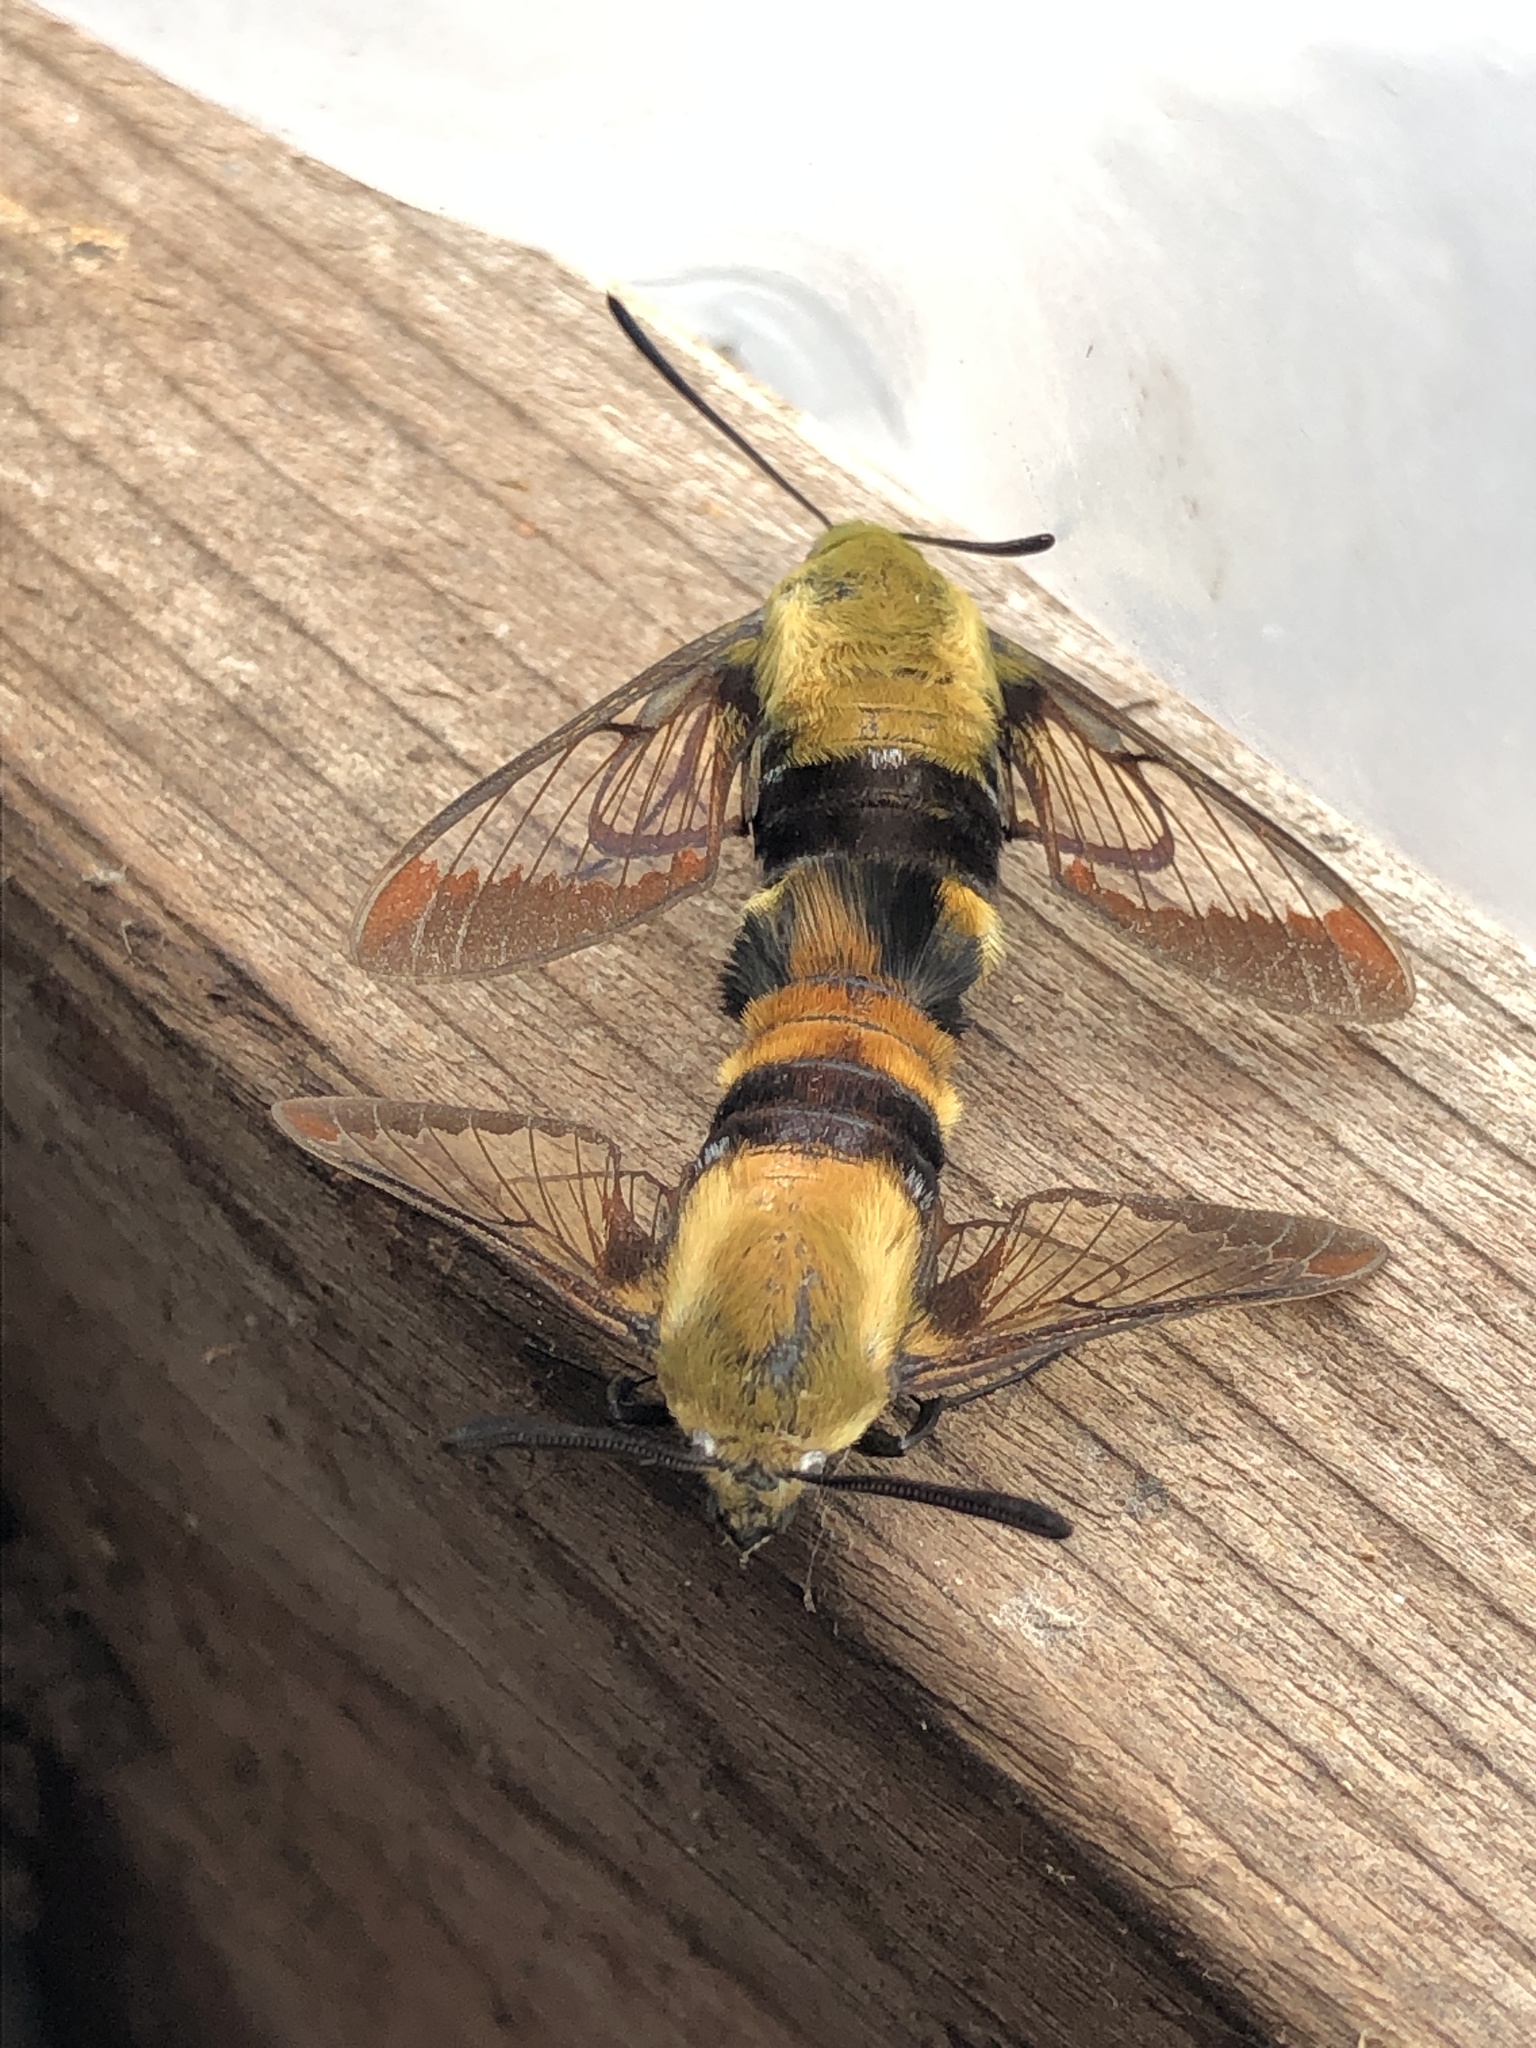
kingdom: Animalia
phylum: Arthropoda
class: Insecta
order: Lepidoptera
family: Sphingidae
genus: Hemaris
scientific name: Hemaris diffinis
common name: Bumblebee moth
